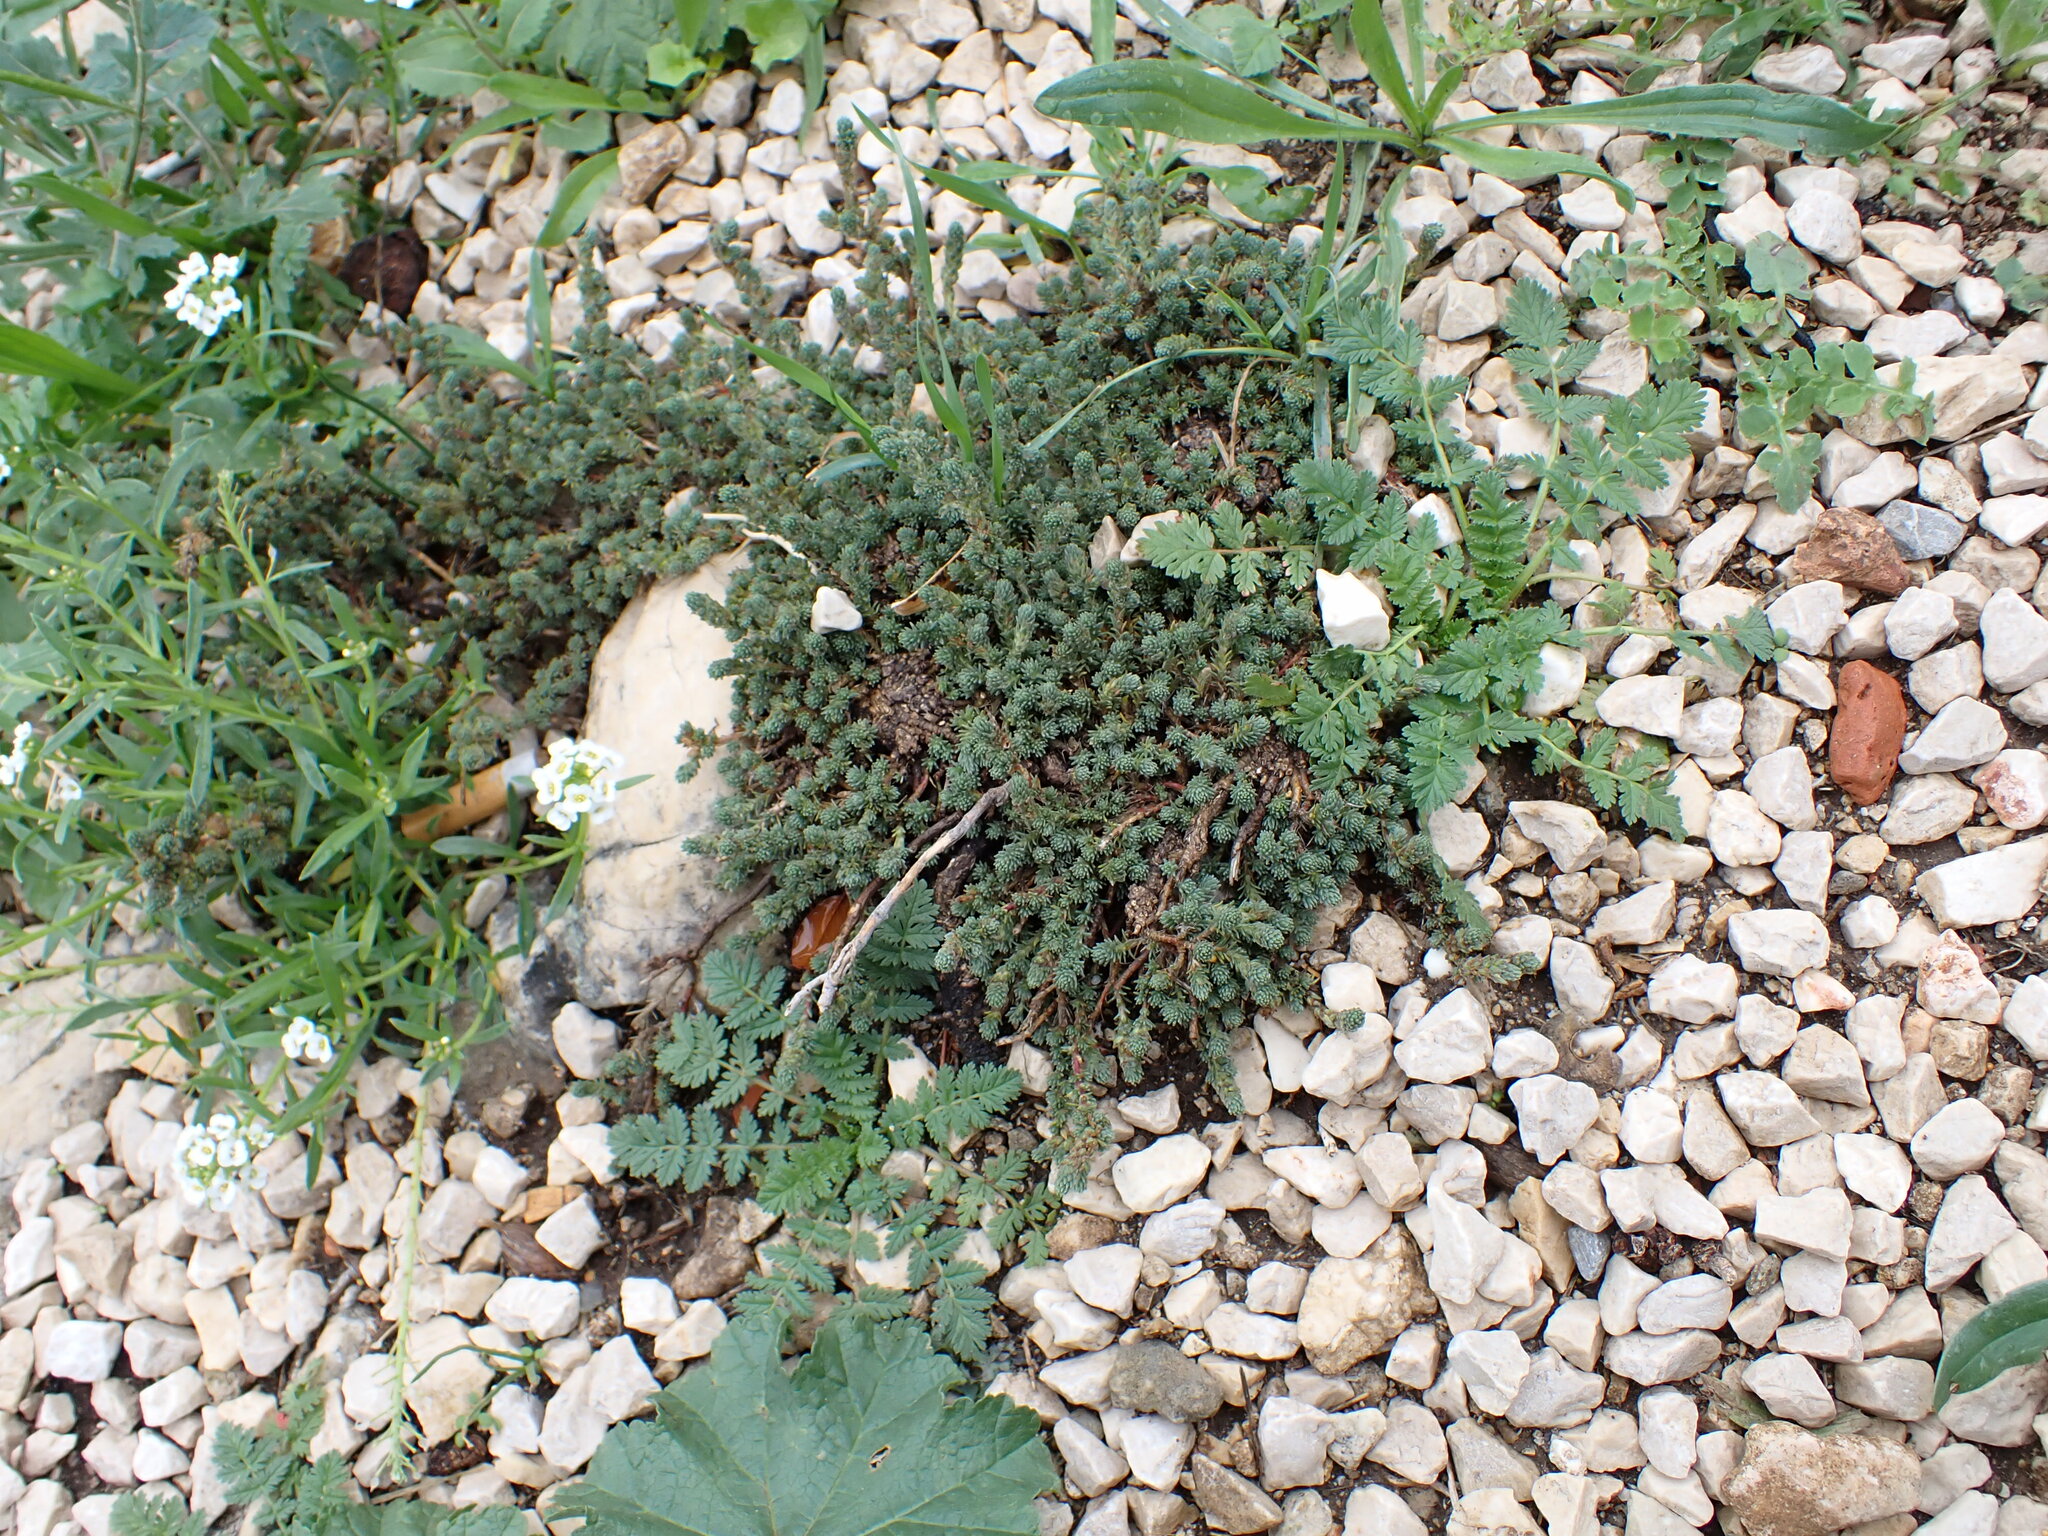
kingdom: Plantae
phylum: Tracheophyta
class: Magnoliopsida
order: Caryophyllales
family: Amaranthaceae
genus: Camphorosma
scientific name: Camphorosma monspeliaca
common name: Camphorfume
